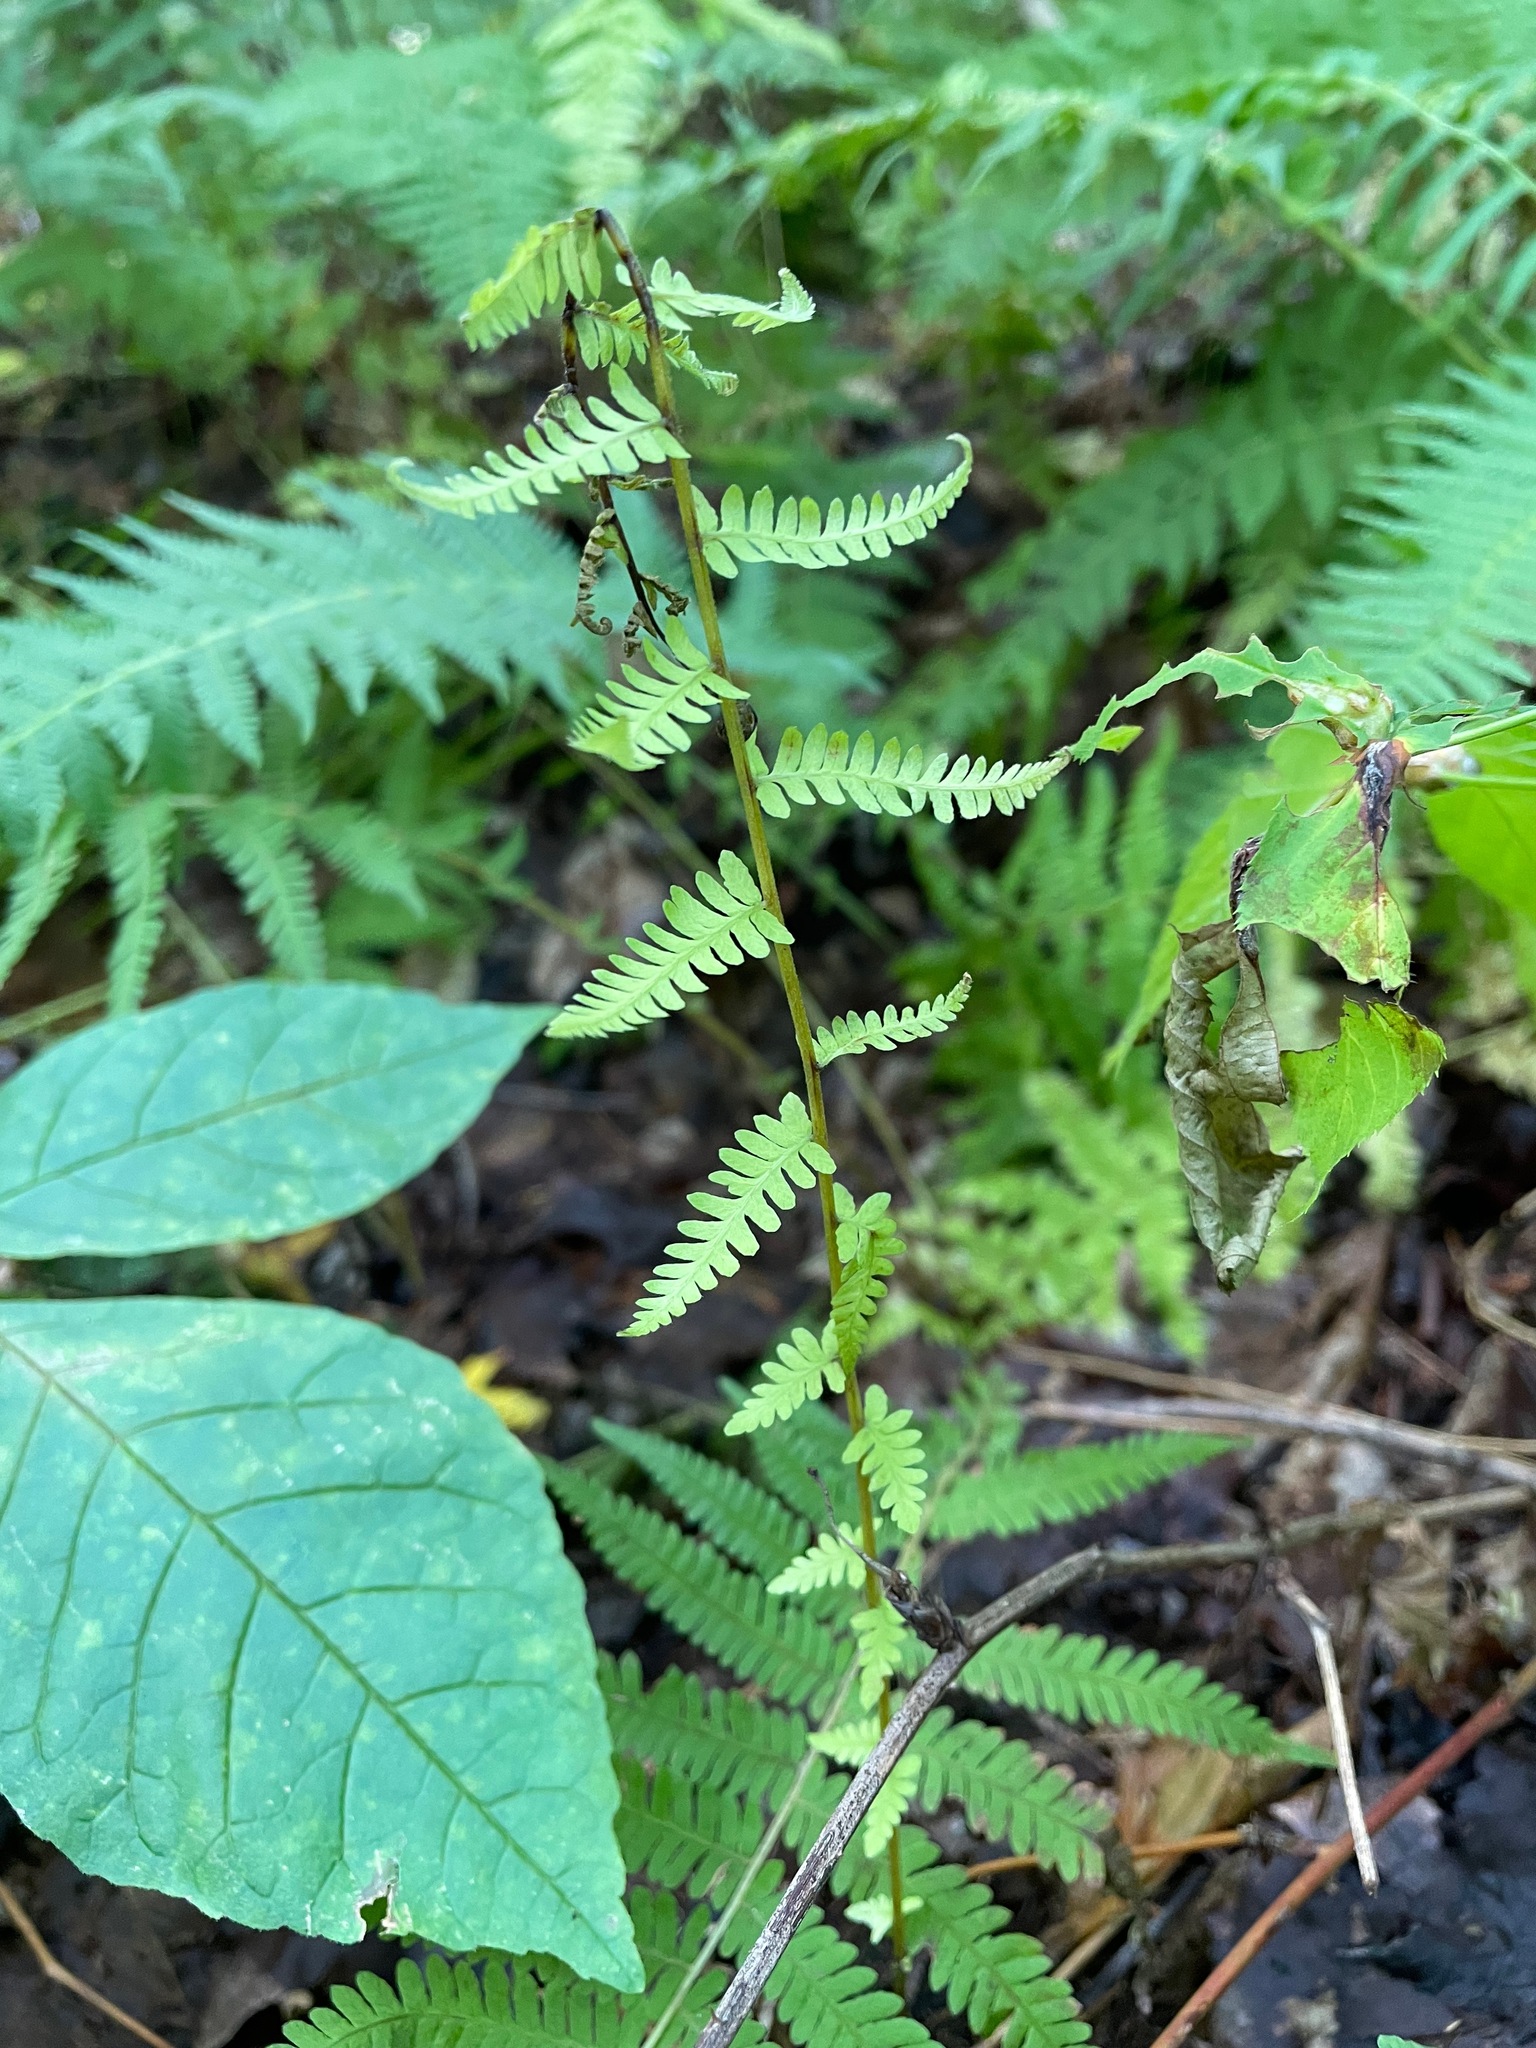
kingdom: Plantae
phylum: Tracheophyta
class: Polypodiopsida
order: Polypodiales
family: Thelypteridaceae
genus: Amauropelta
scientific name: Amauropelta noveboracensis
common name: New york fern
